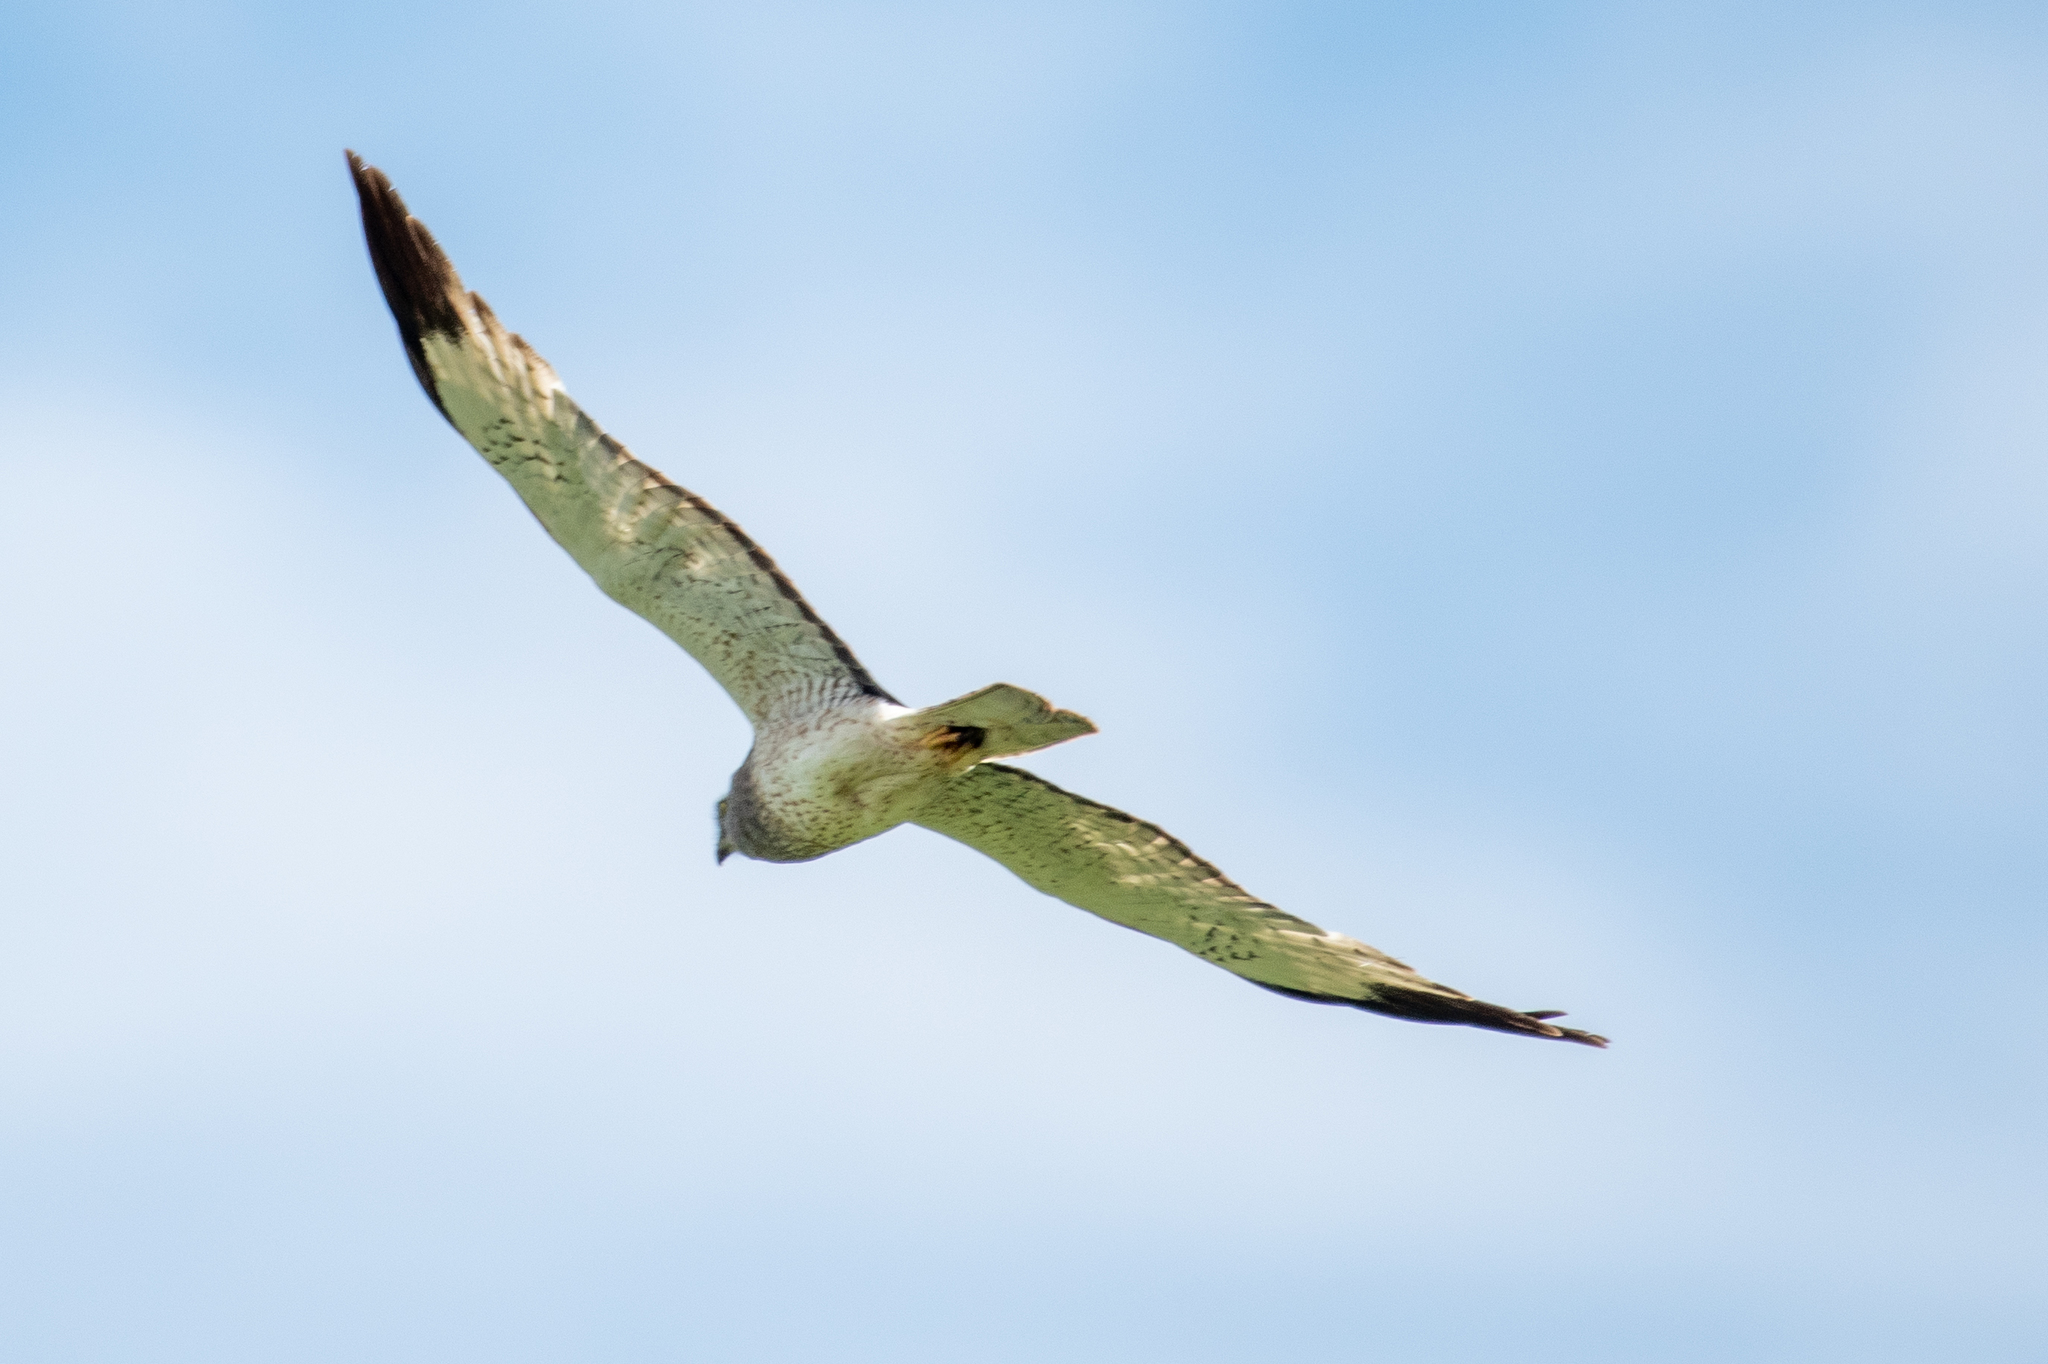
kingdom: Animalia
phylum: Chordata
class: Aves
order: Accipitriformes
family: Accipitridae
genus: Circus
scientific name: Circus cyaneus
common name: Hen harrier
